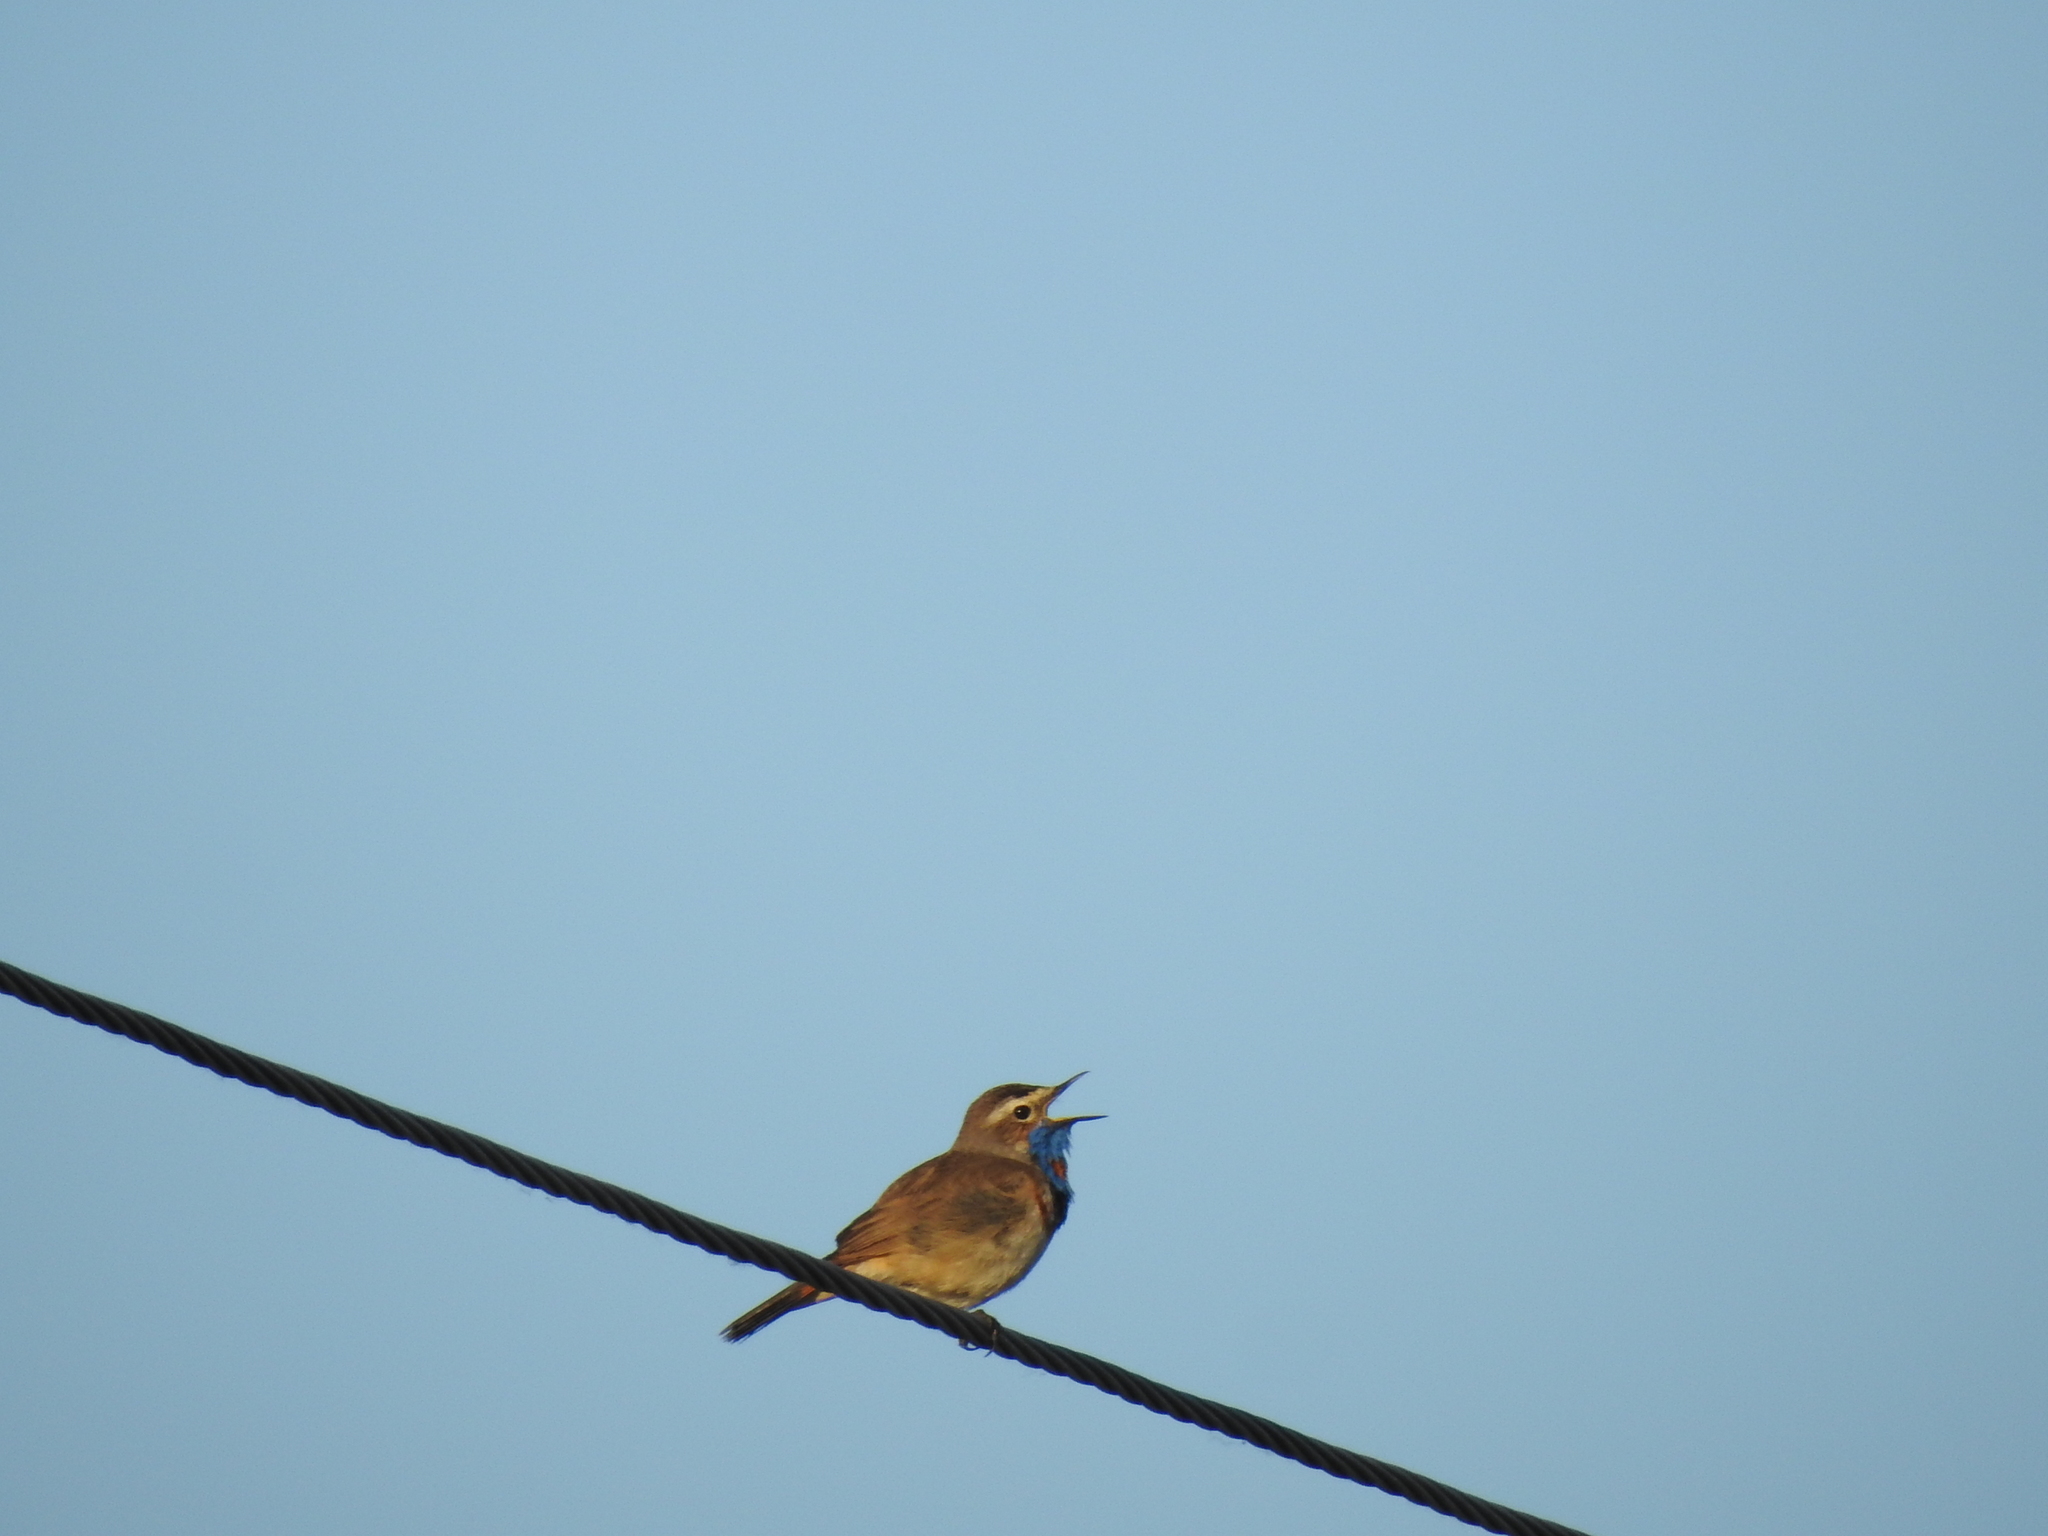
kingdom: Animalia
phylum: Chordata
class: Aves
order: Passeriformes
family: Muscicapidae
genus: Luscinia
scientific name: Luscinia svecica
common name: Bluethroat
